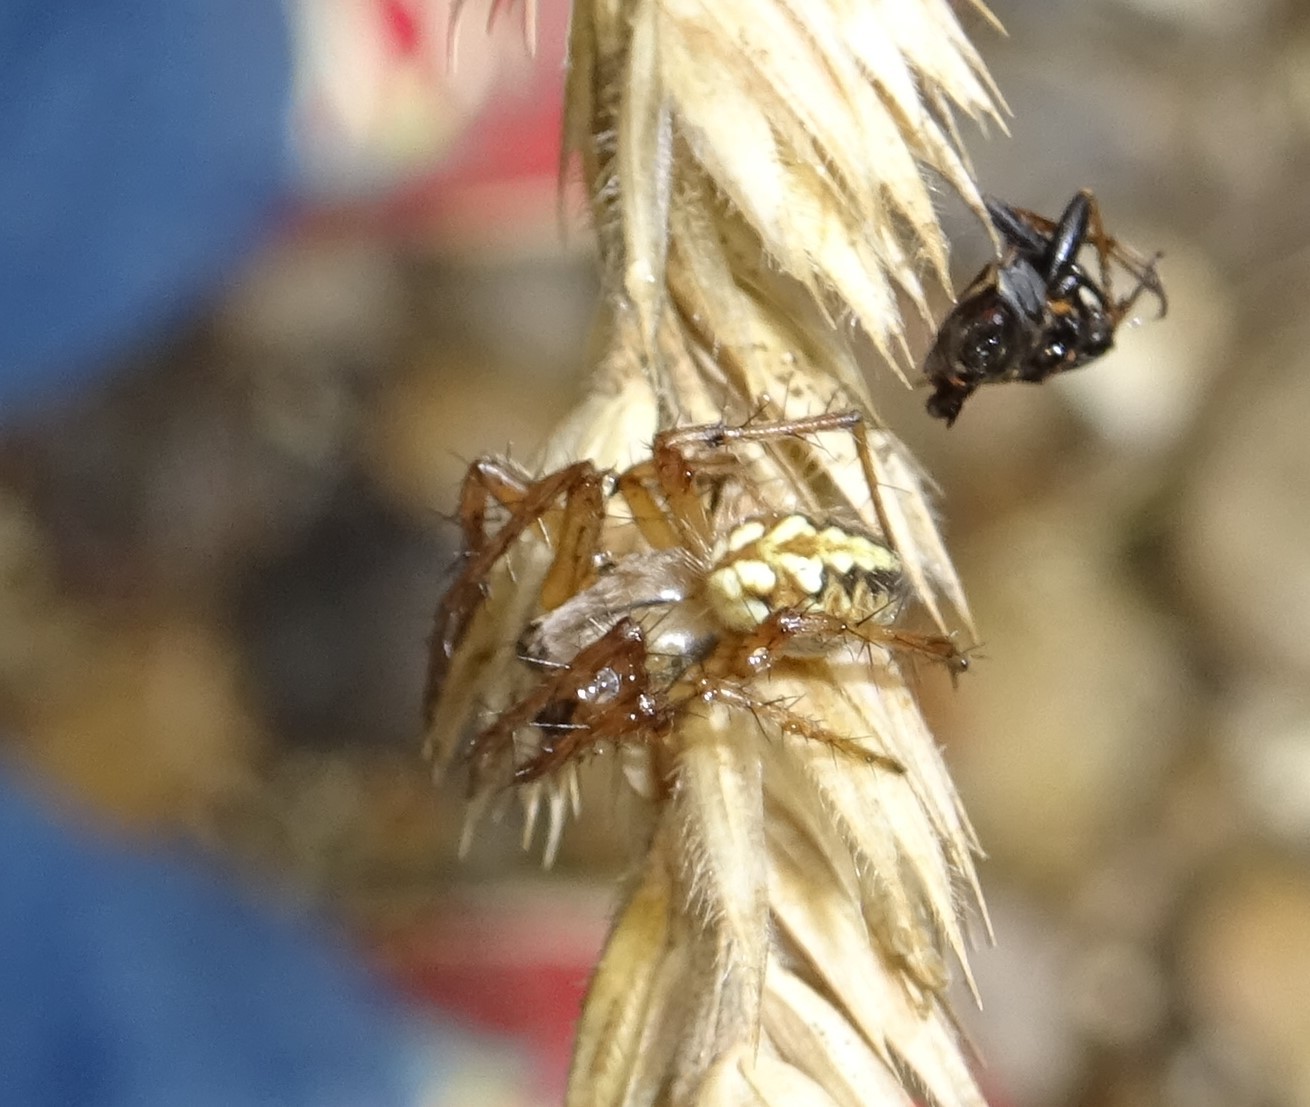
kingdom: Animalia
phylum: Arthropoda
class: Arachnida
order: Araneae
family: Araneidae
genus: Neoscona
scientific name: Neoscona adianta
